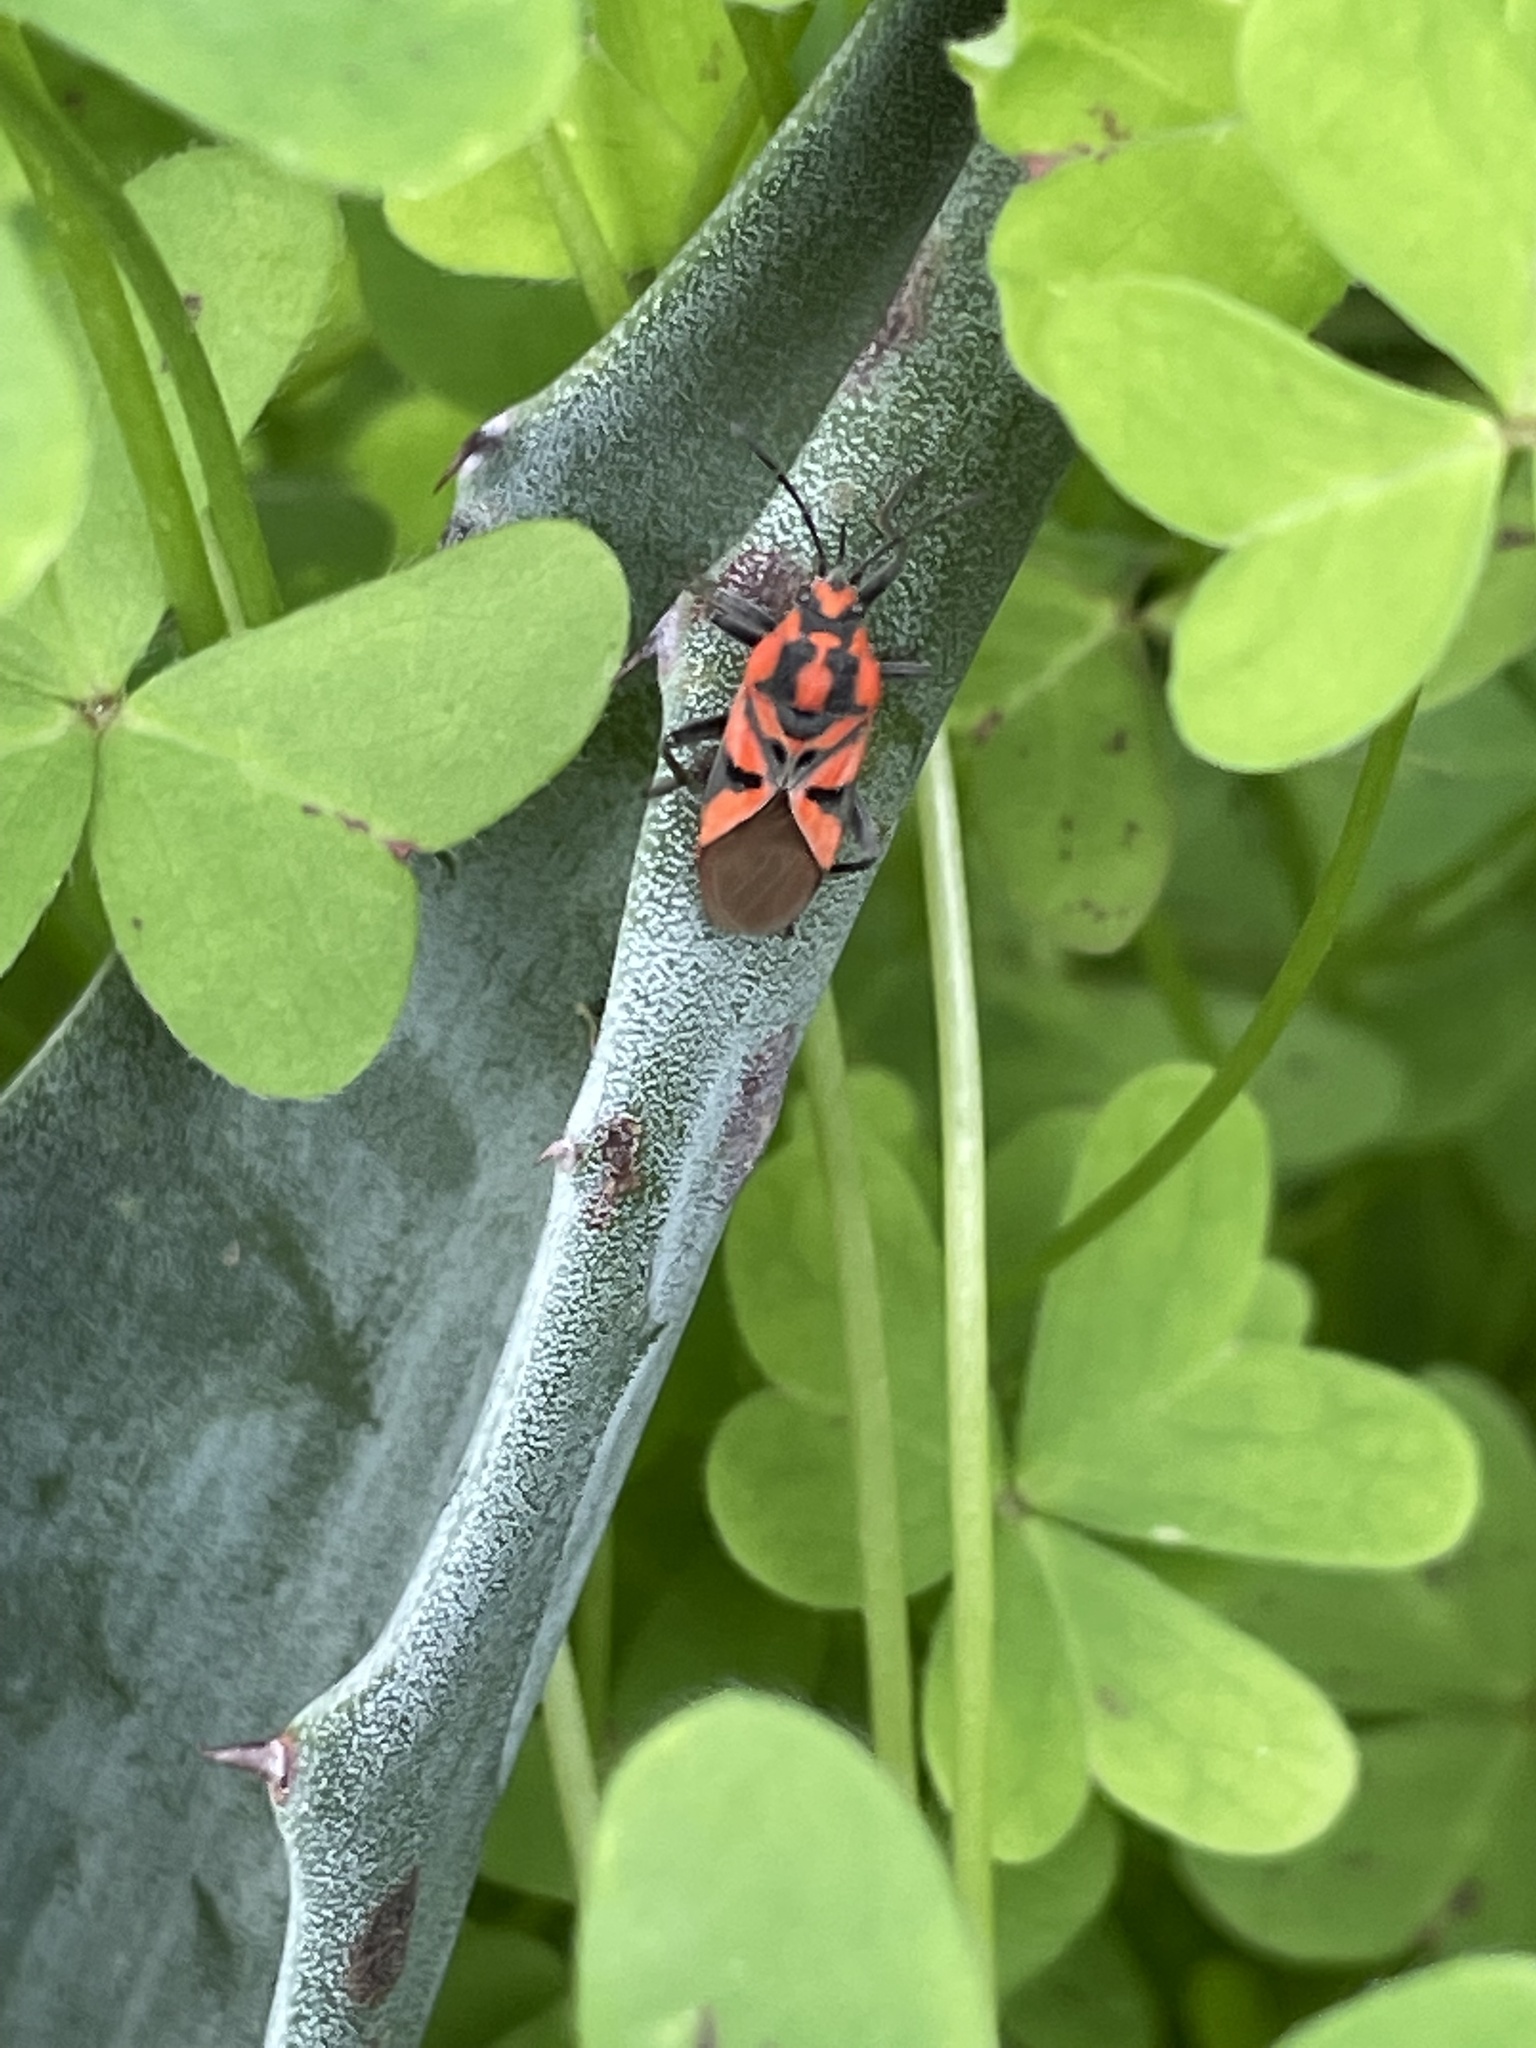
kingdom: Animalia
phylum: Arthropoda
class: Insecta
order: Hemiptera
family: Lygaeidae
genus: Spilostethus
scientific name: Spilostethus furcula
